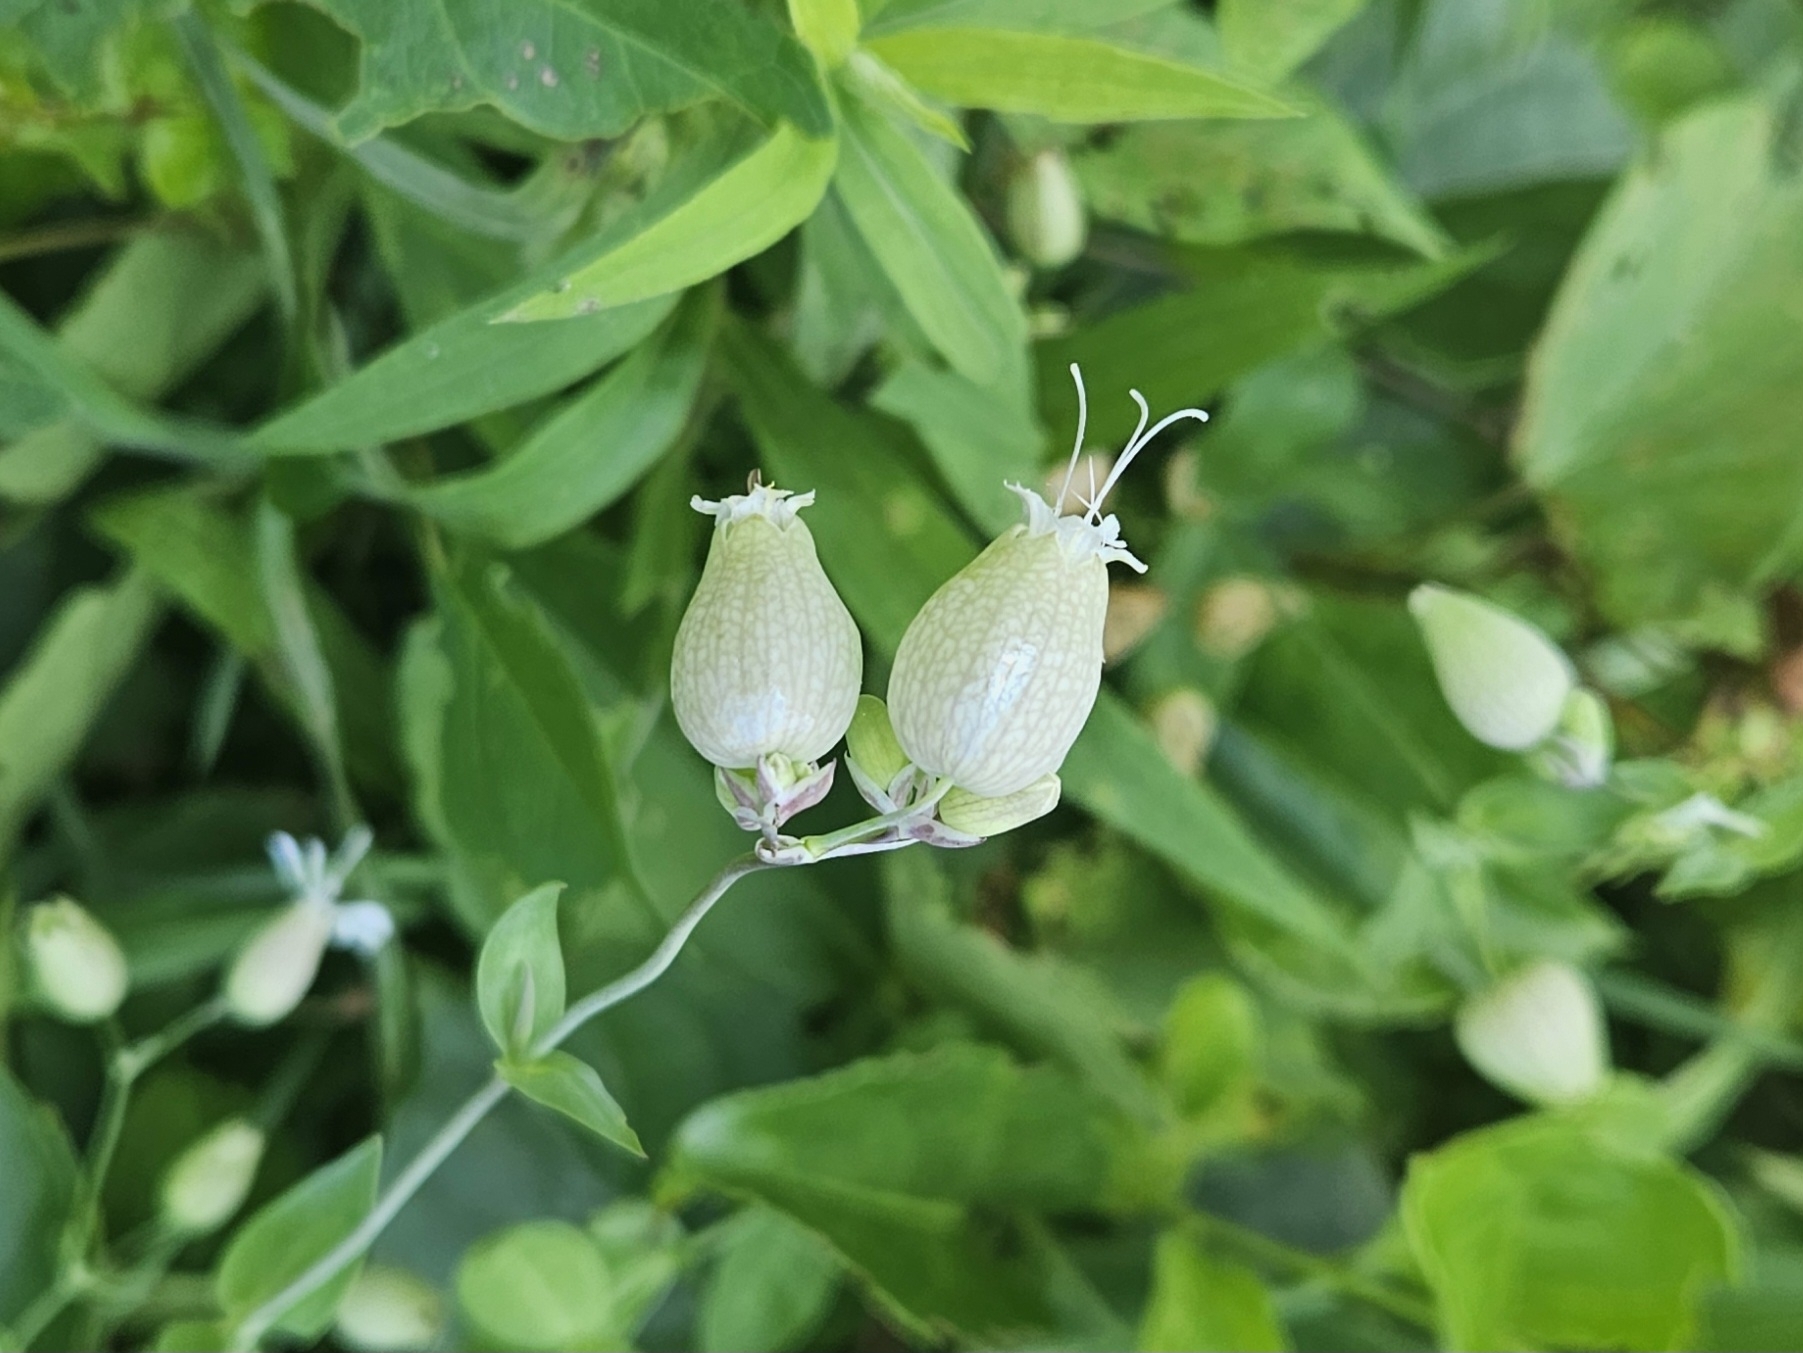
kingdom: Plantae
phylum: Tracheophyta
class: Magnoliopsida
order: Caryophyllales
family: Caryophyllaceae
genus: Silene
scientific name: Silene vulgaris
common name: Bladder campion
